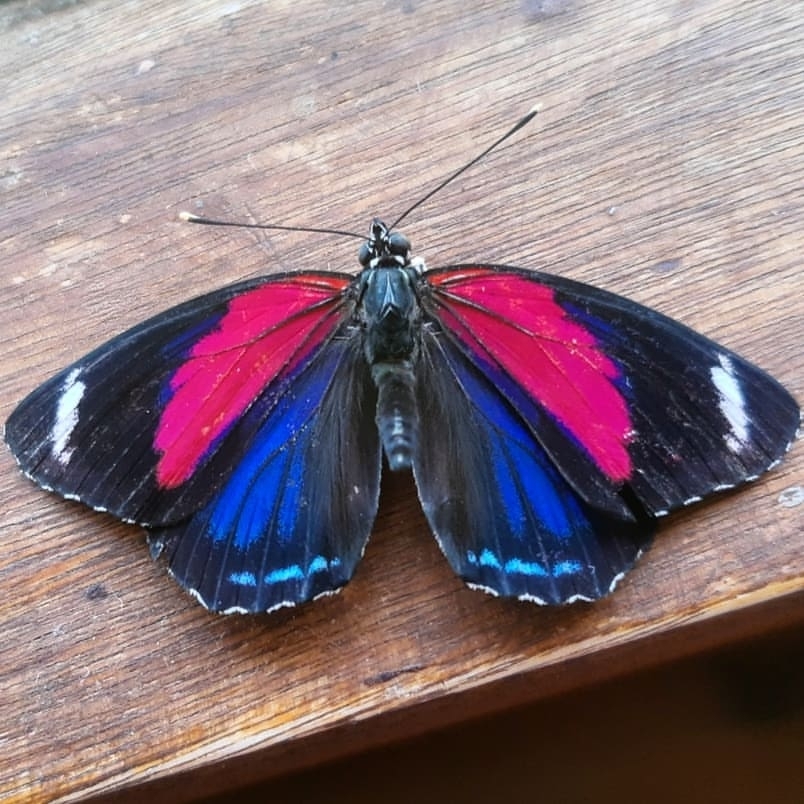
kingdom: Animalia
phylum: Arthropoda
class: Insecta
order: Lepidoptera
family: Nymphalidae
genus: Catagramma
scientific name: Catagramma pygas
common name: Godart's numberwing
